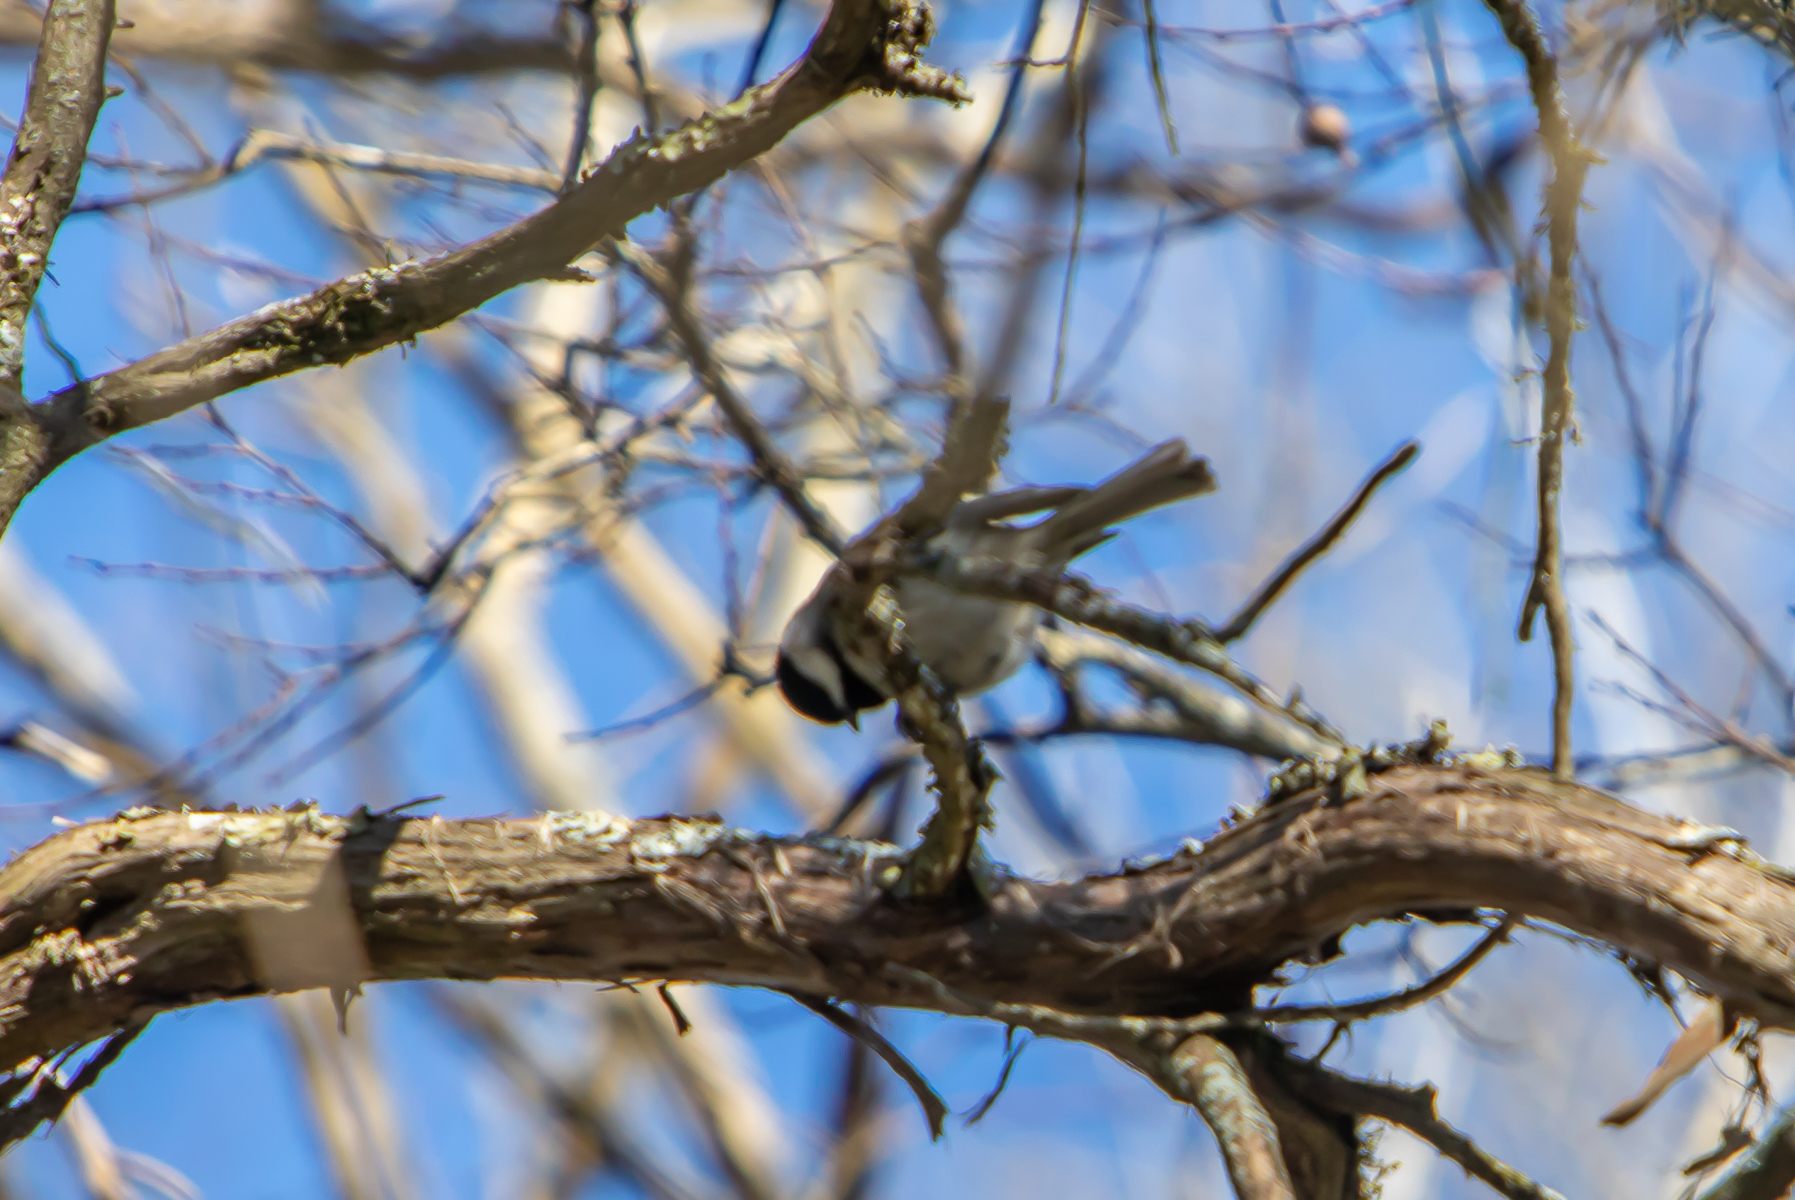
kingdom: Animalia
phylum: Chordata
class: Aves
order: Passeriformes
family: Paridae
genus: Poecile
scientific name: Poecile carolinensis
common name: Carolina chickadee
